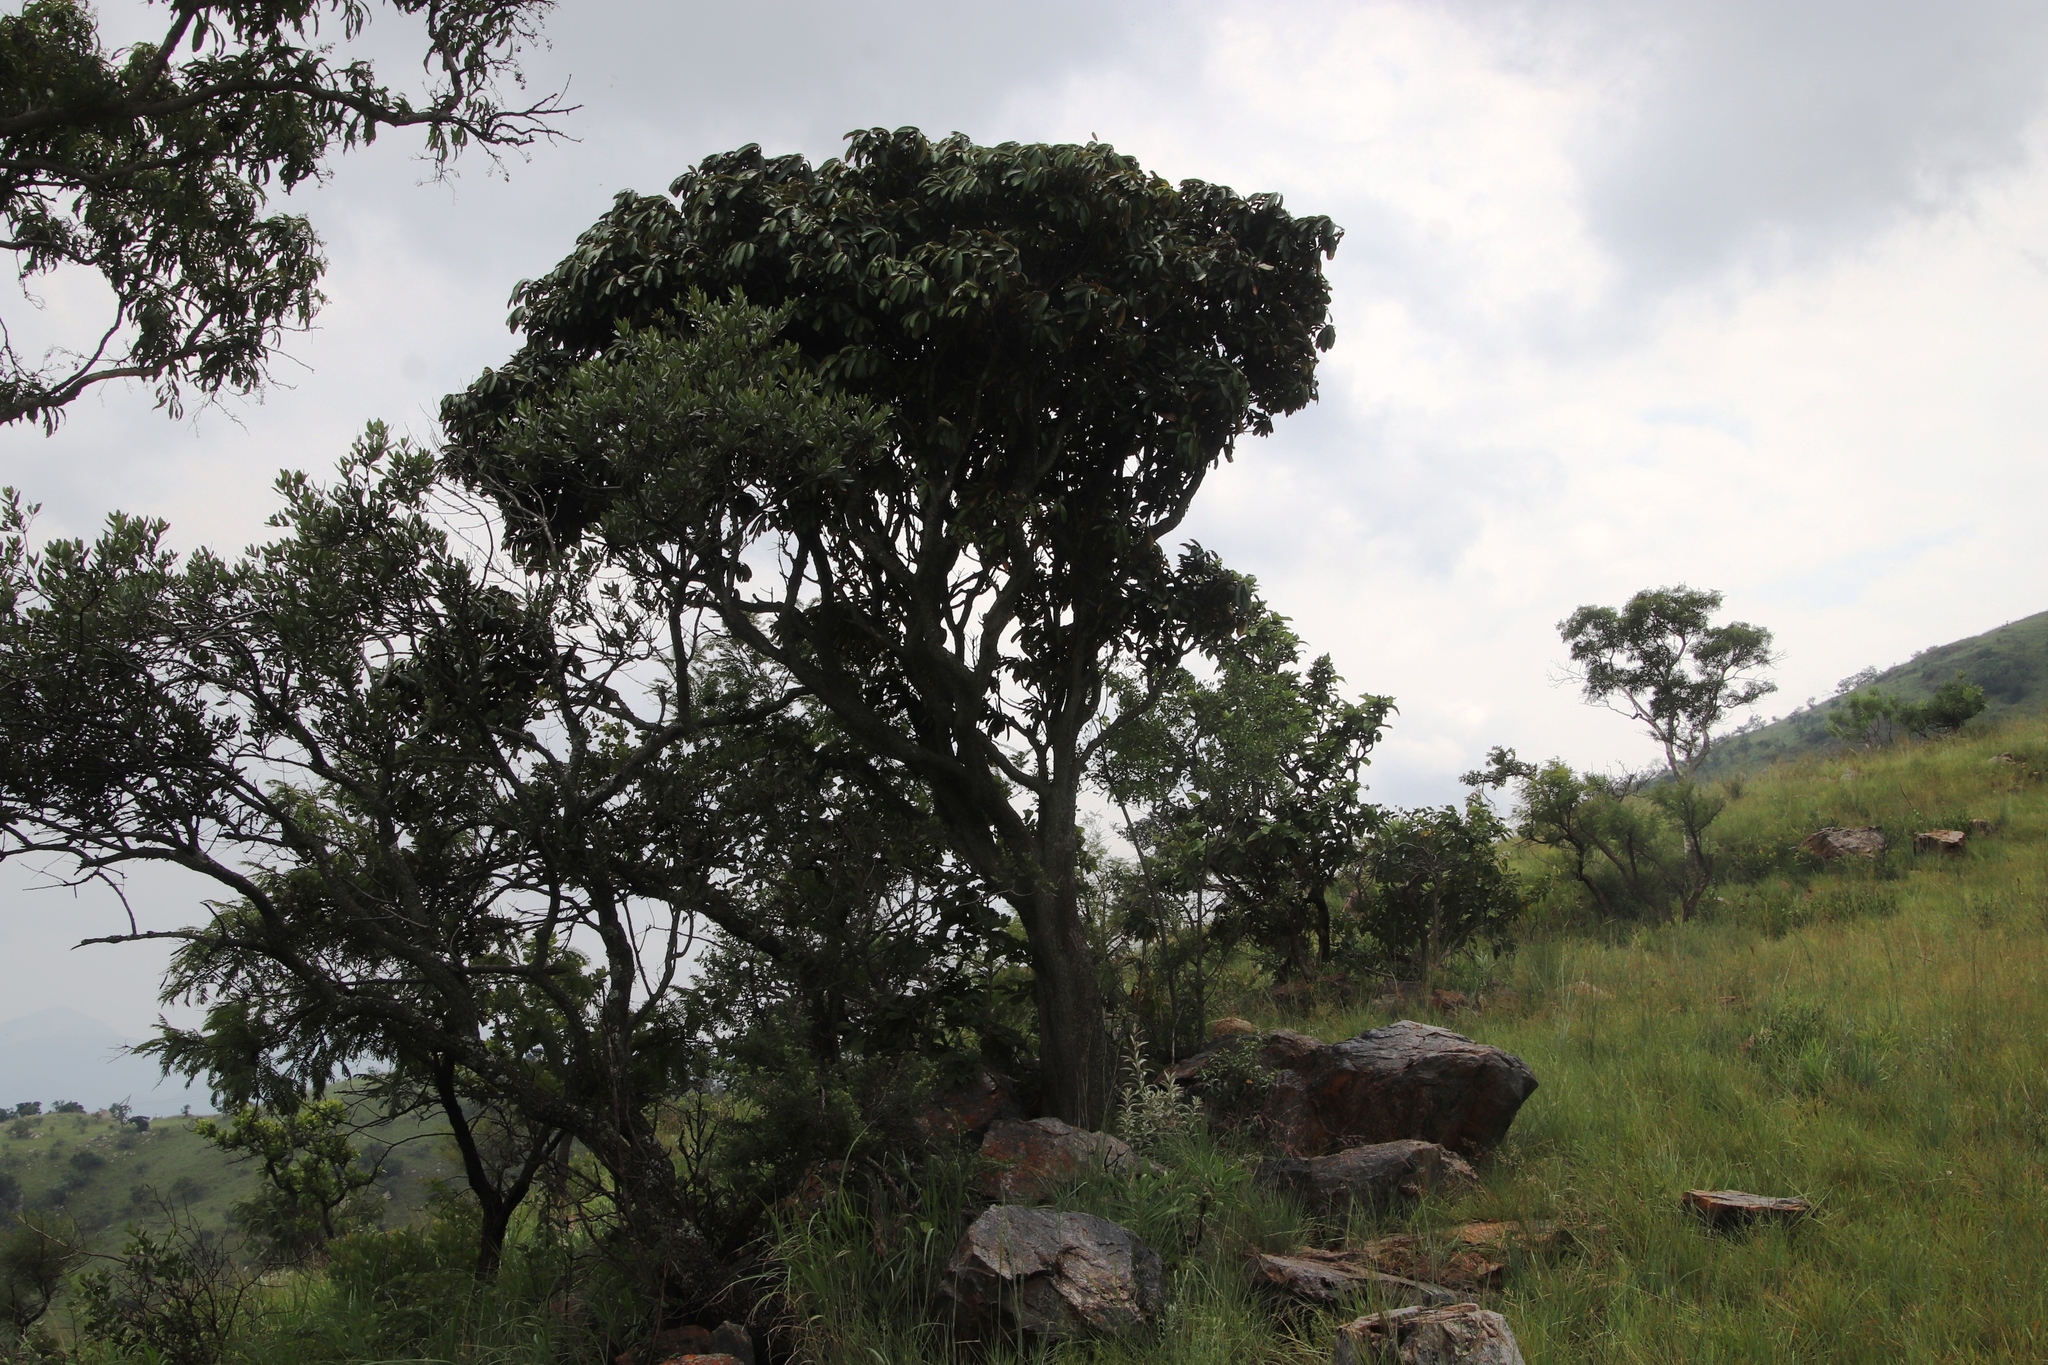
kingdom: Plantae
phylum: Tracheophyta
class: Magnoliopsida
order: Ericales
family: Sapotaceae
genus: Englerophytum
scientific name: Englerophytum magalismontanum
